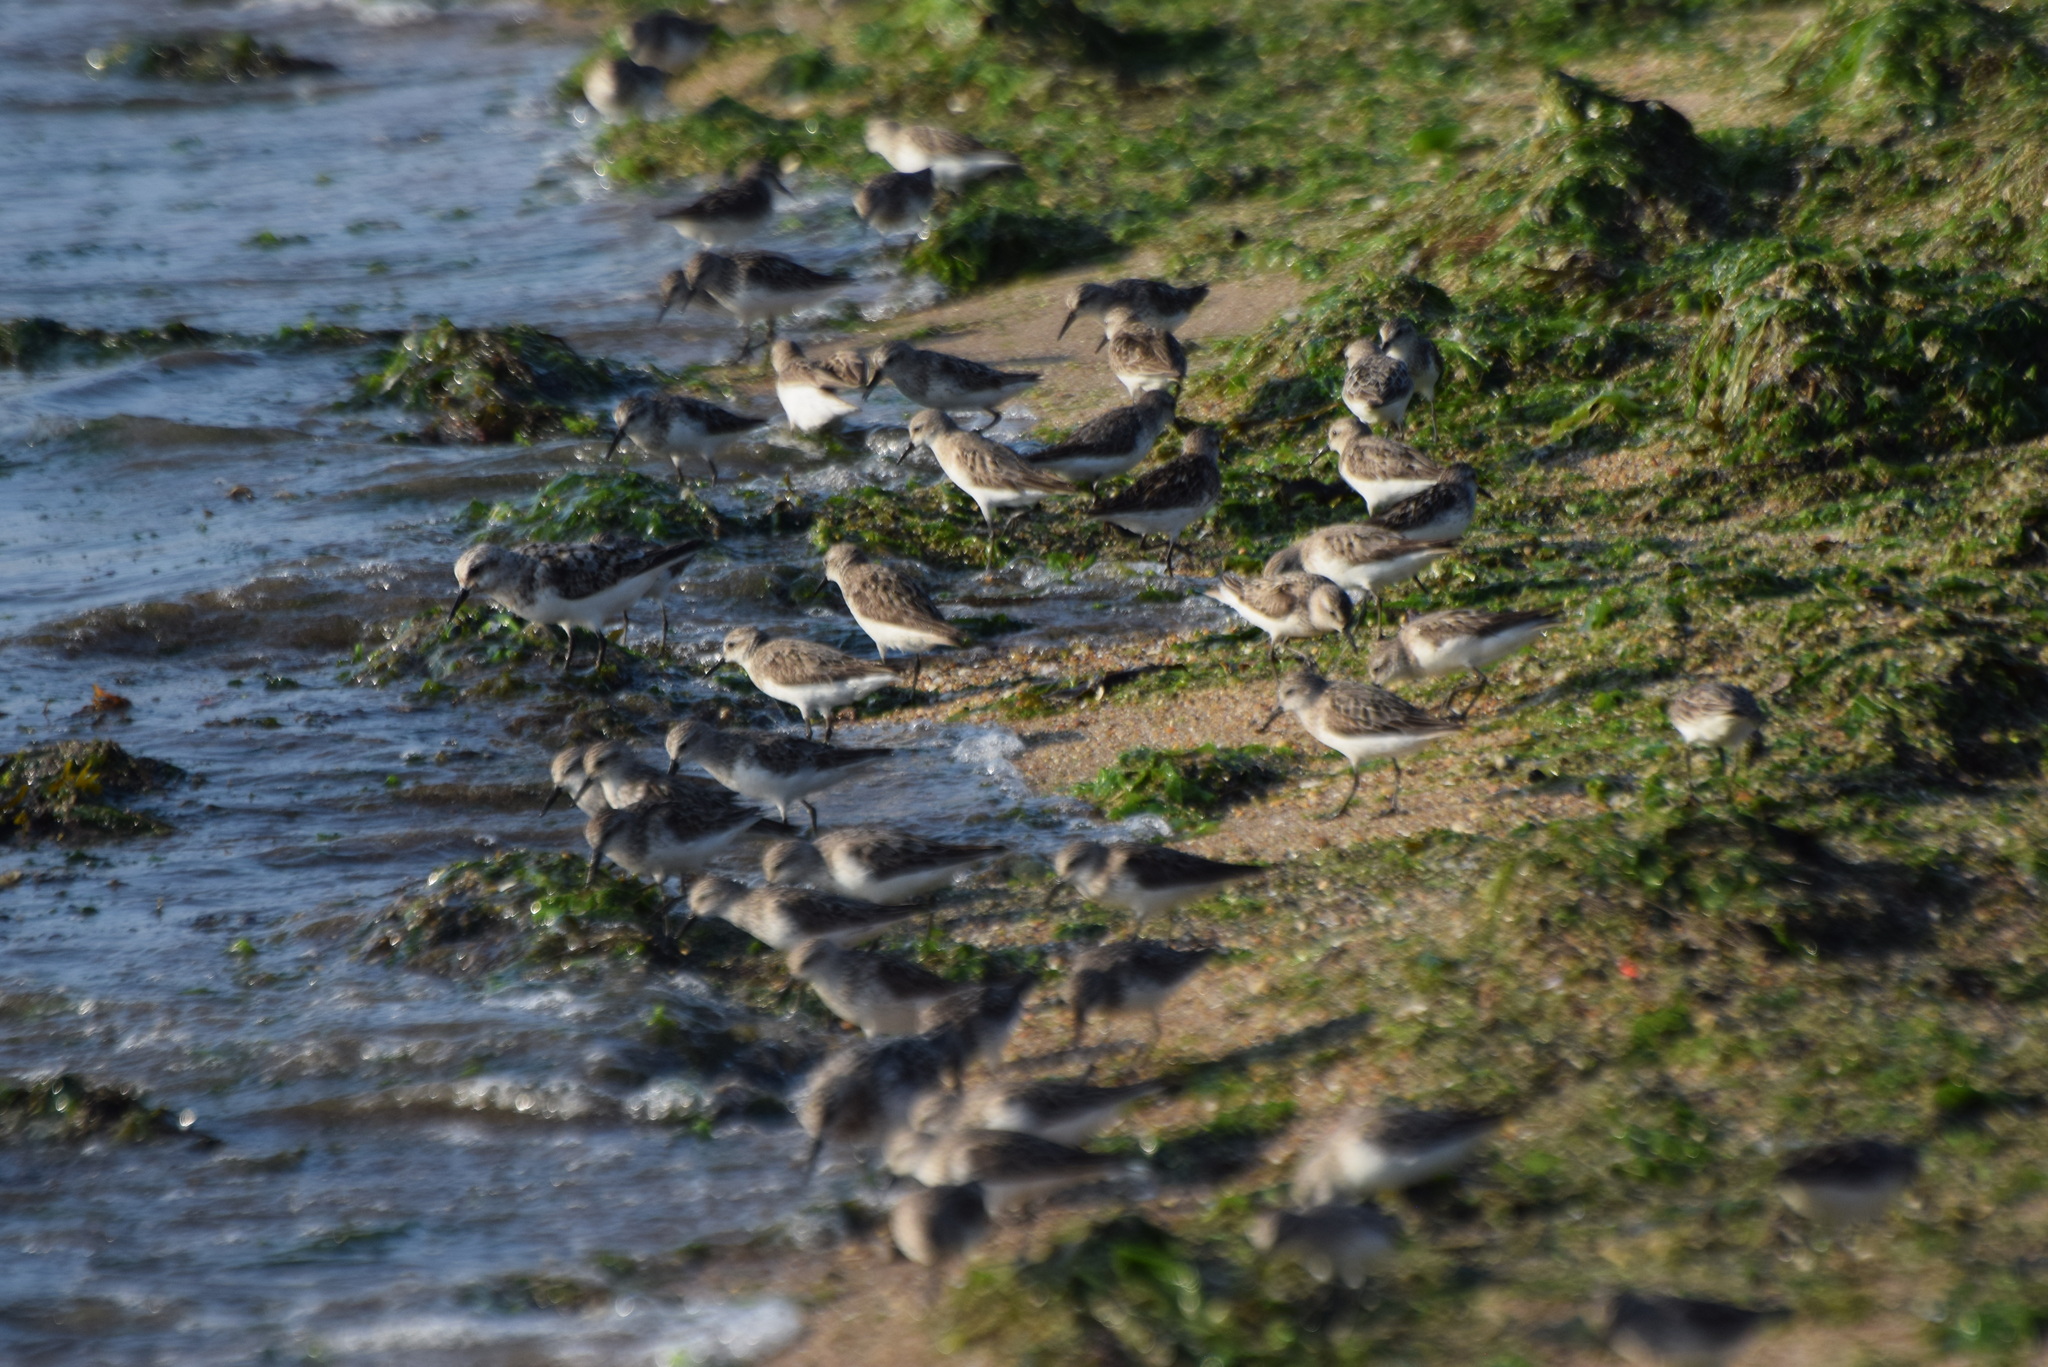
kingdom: Animalia
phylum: Chordata
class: Aves
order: Charadriiformes
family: Scolopacidae
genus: Calidris
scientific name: Calidris pusilla
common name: Semipalmated sandpiper
